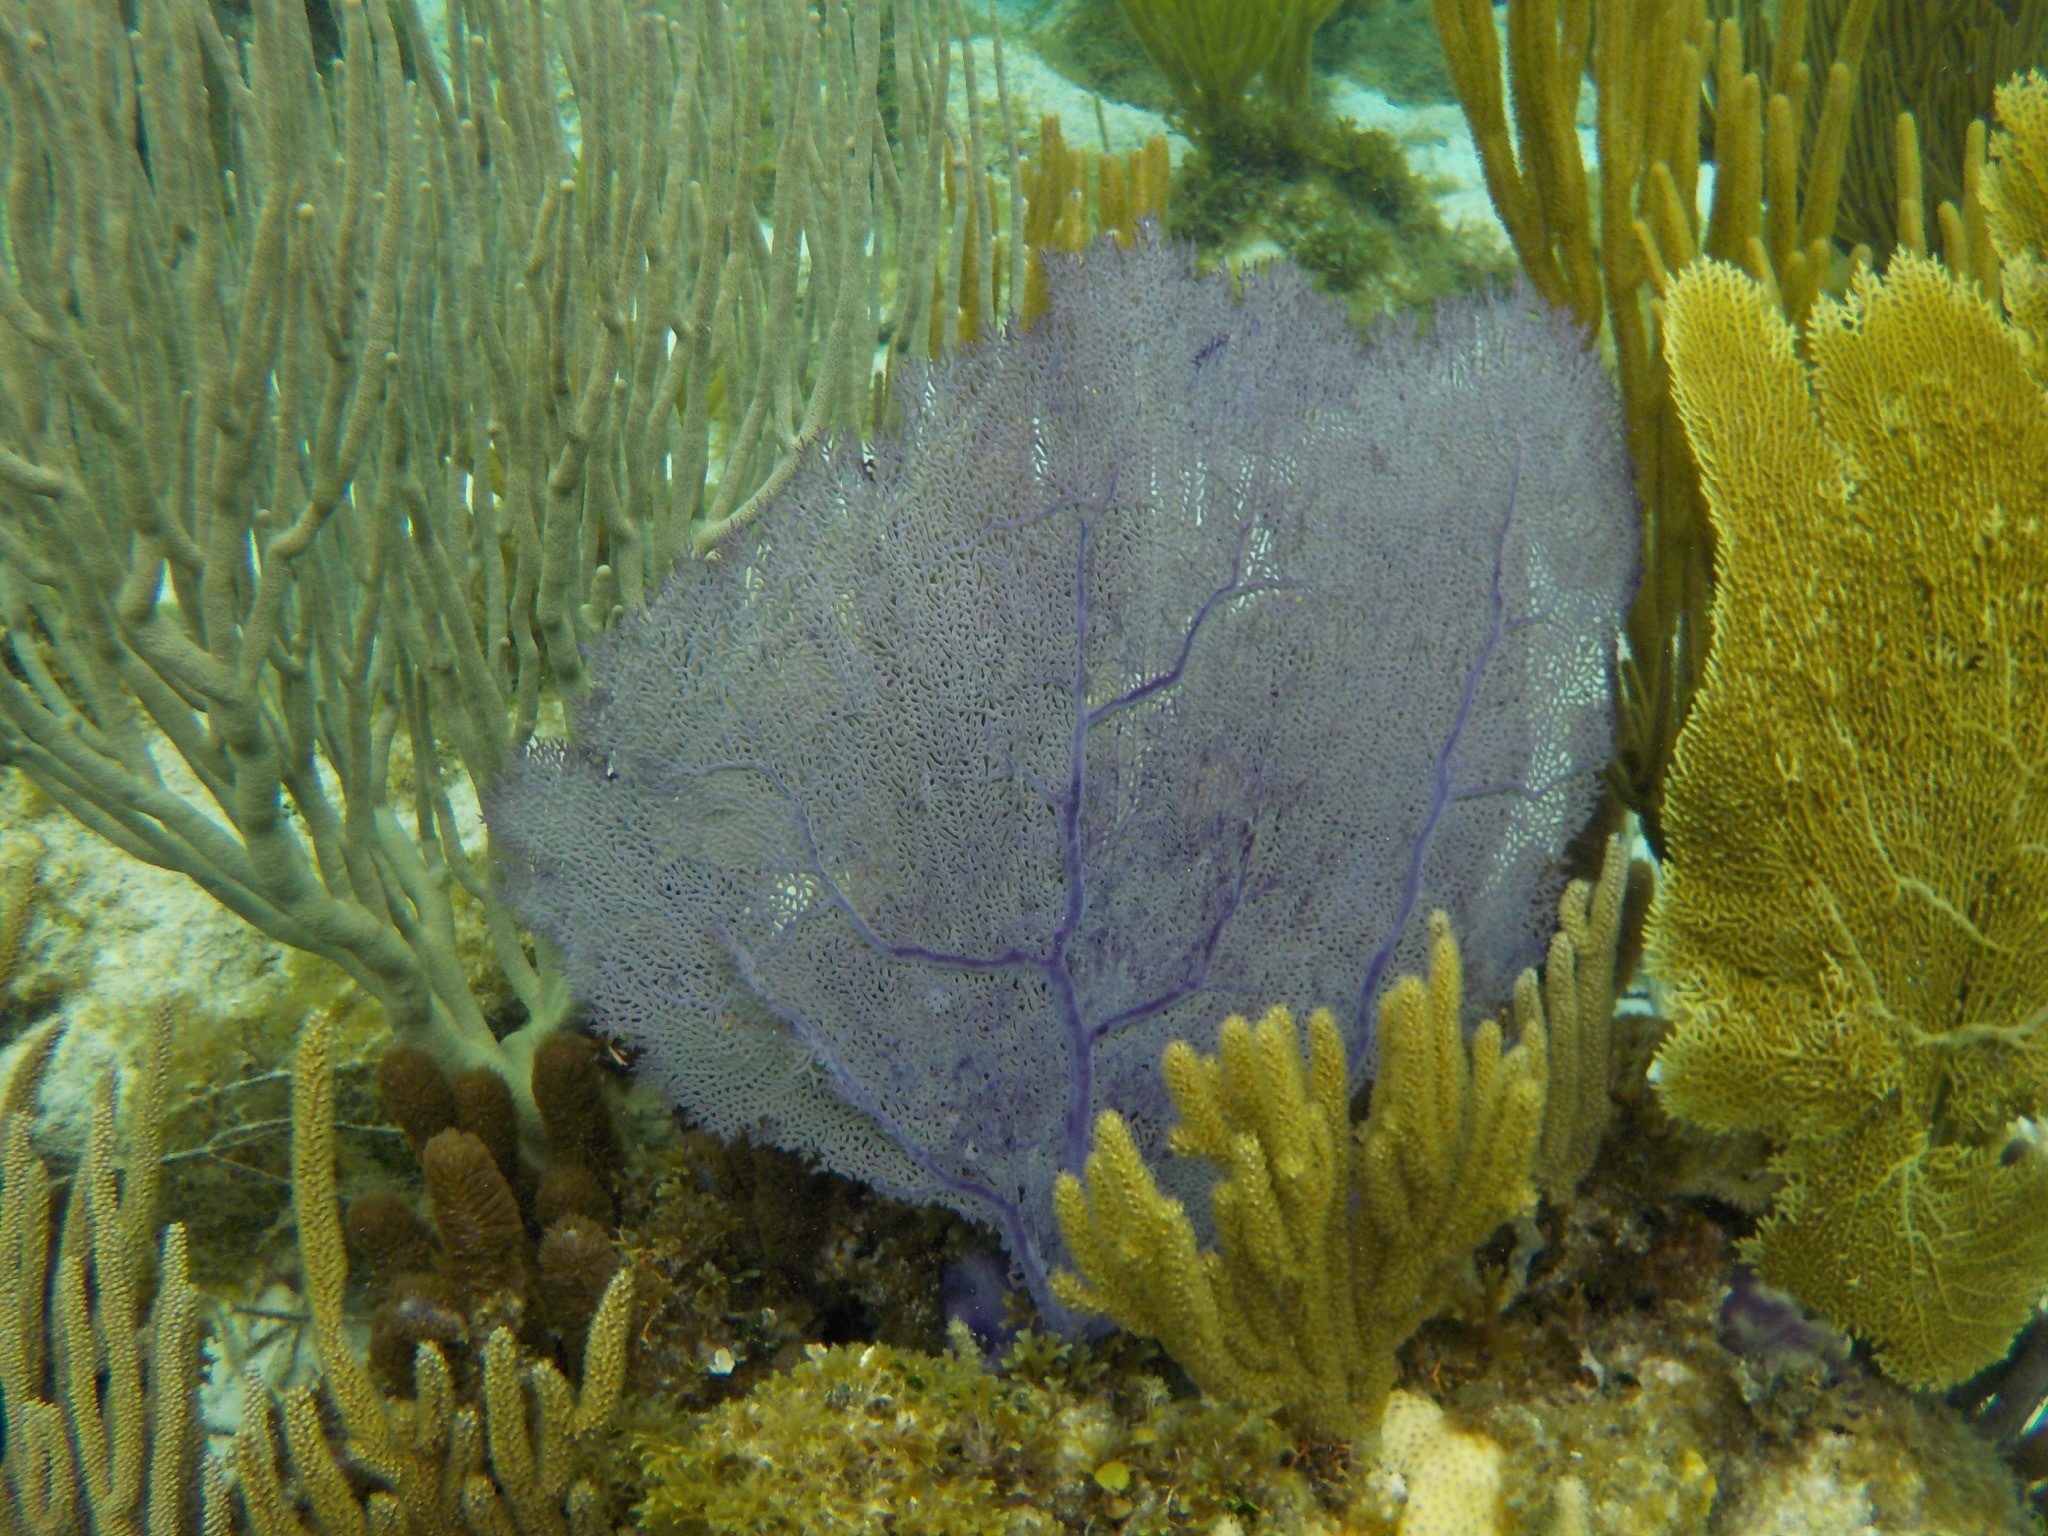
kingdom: Animalia
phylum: Cnidaria
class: Anthozoa
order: Malacalcyonacea
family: Gorgoniidae
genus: Gorgonia
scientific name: Gorgonia ventalina
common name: Common sea fan
